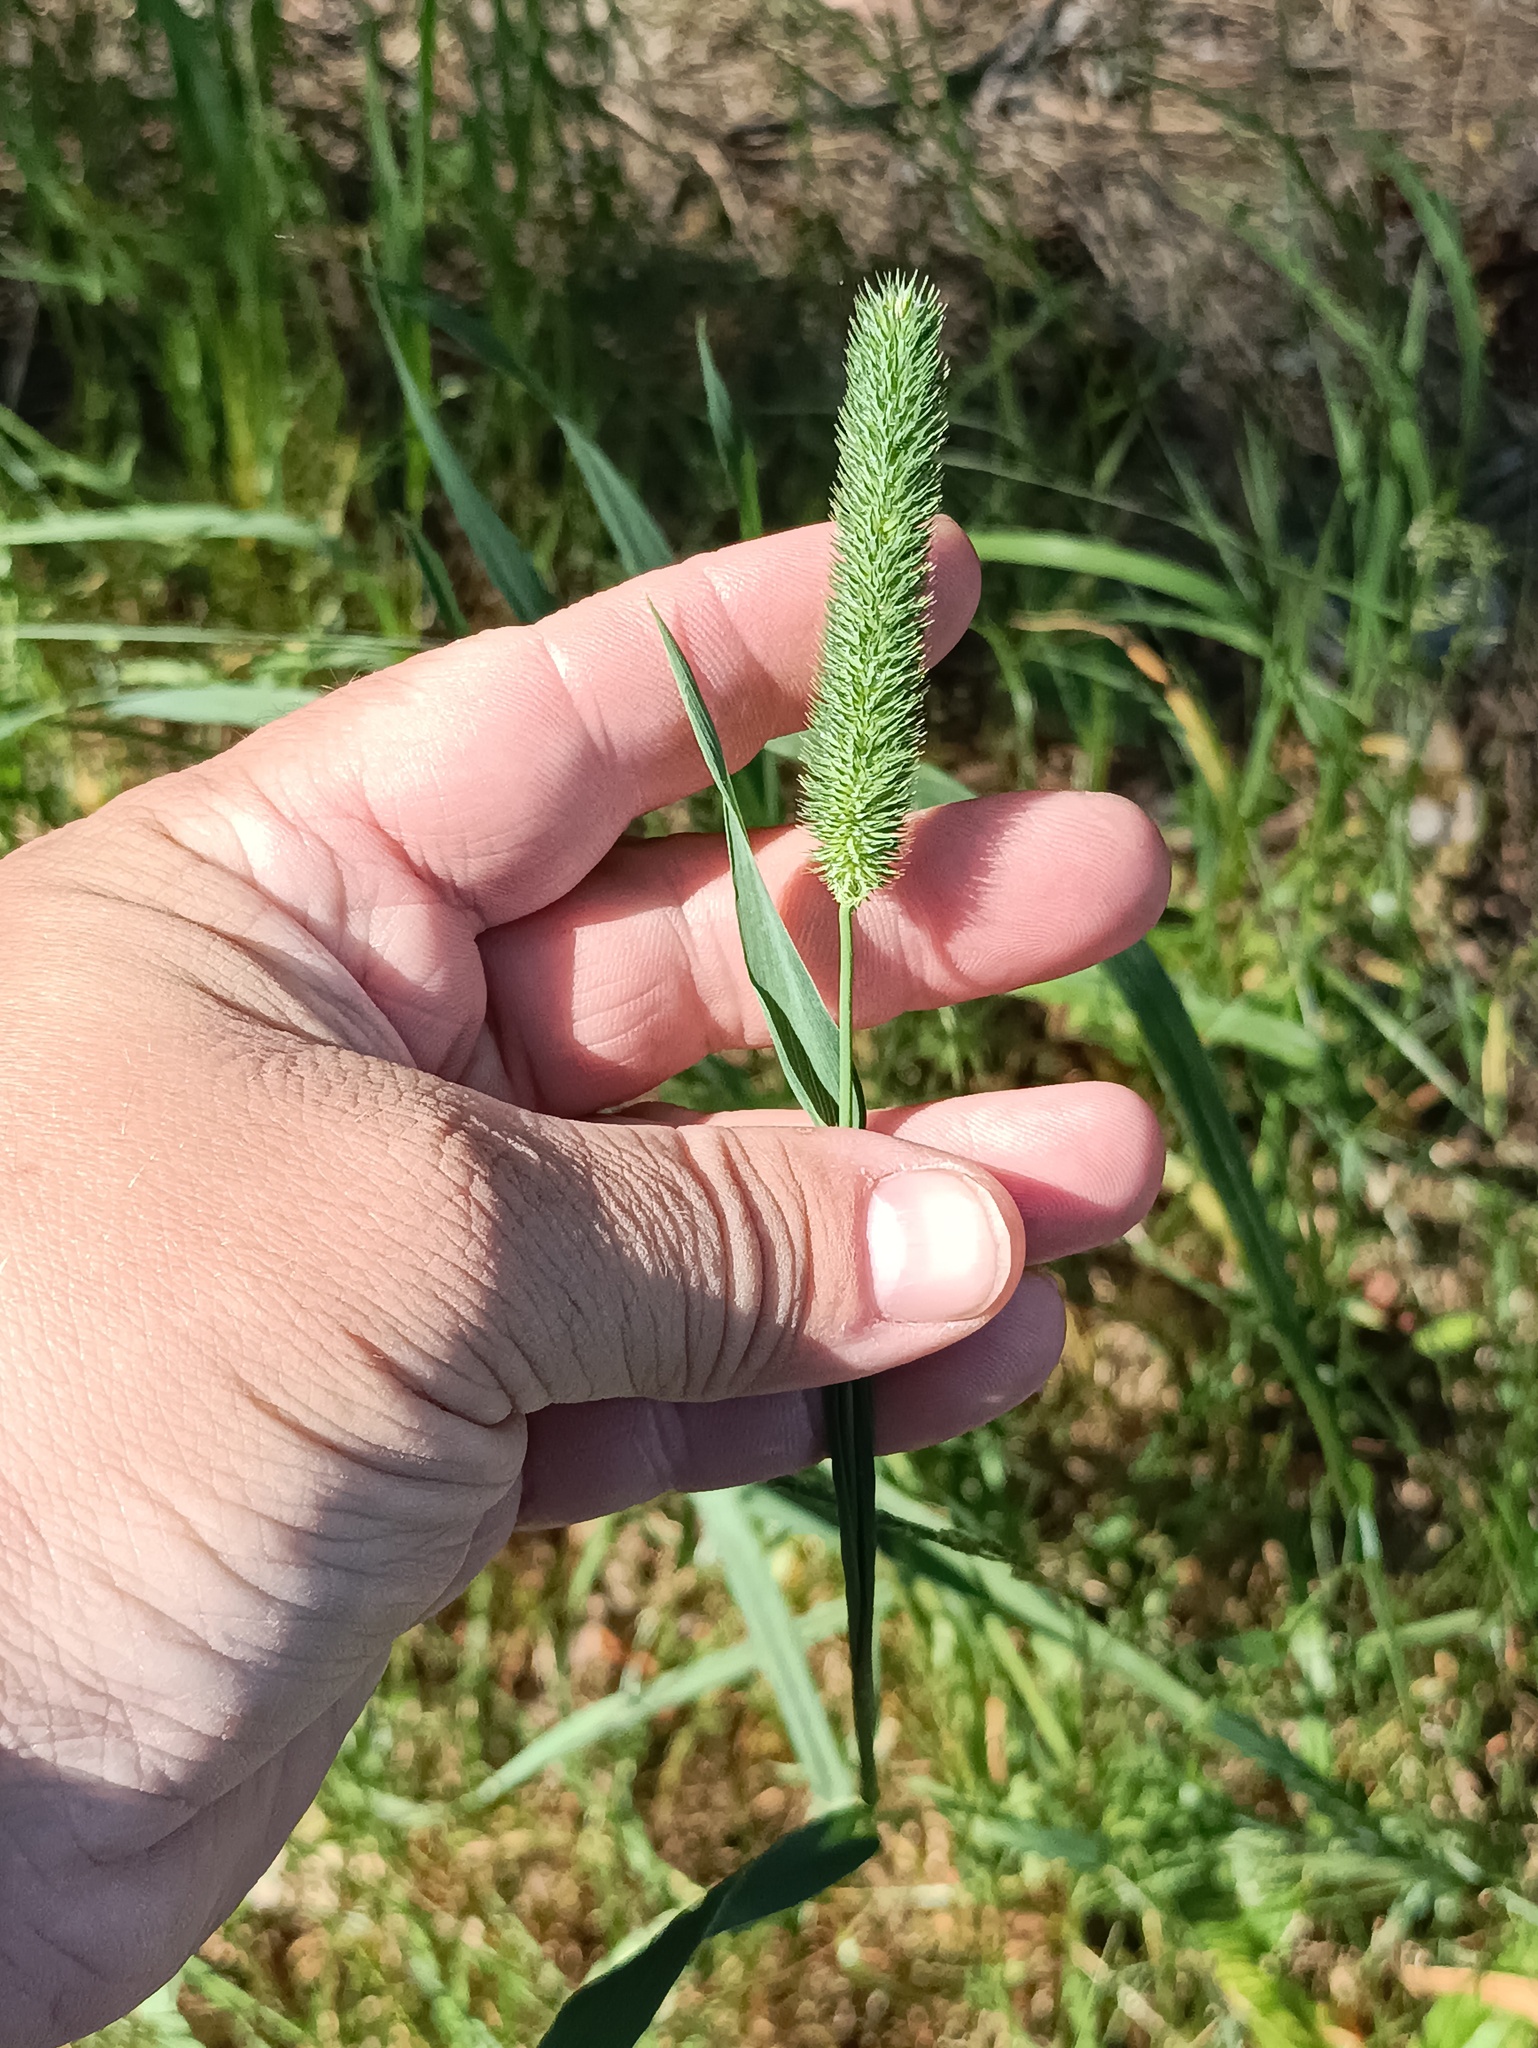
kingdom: Plantae
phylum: Tracheophyta
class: Liliopsida
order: Poales
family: Poaceae
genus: Phleum
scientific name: Phleum pratense
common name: Timothy grass
